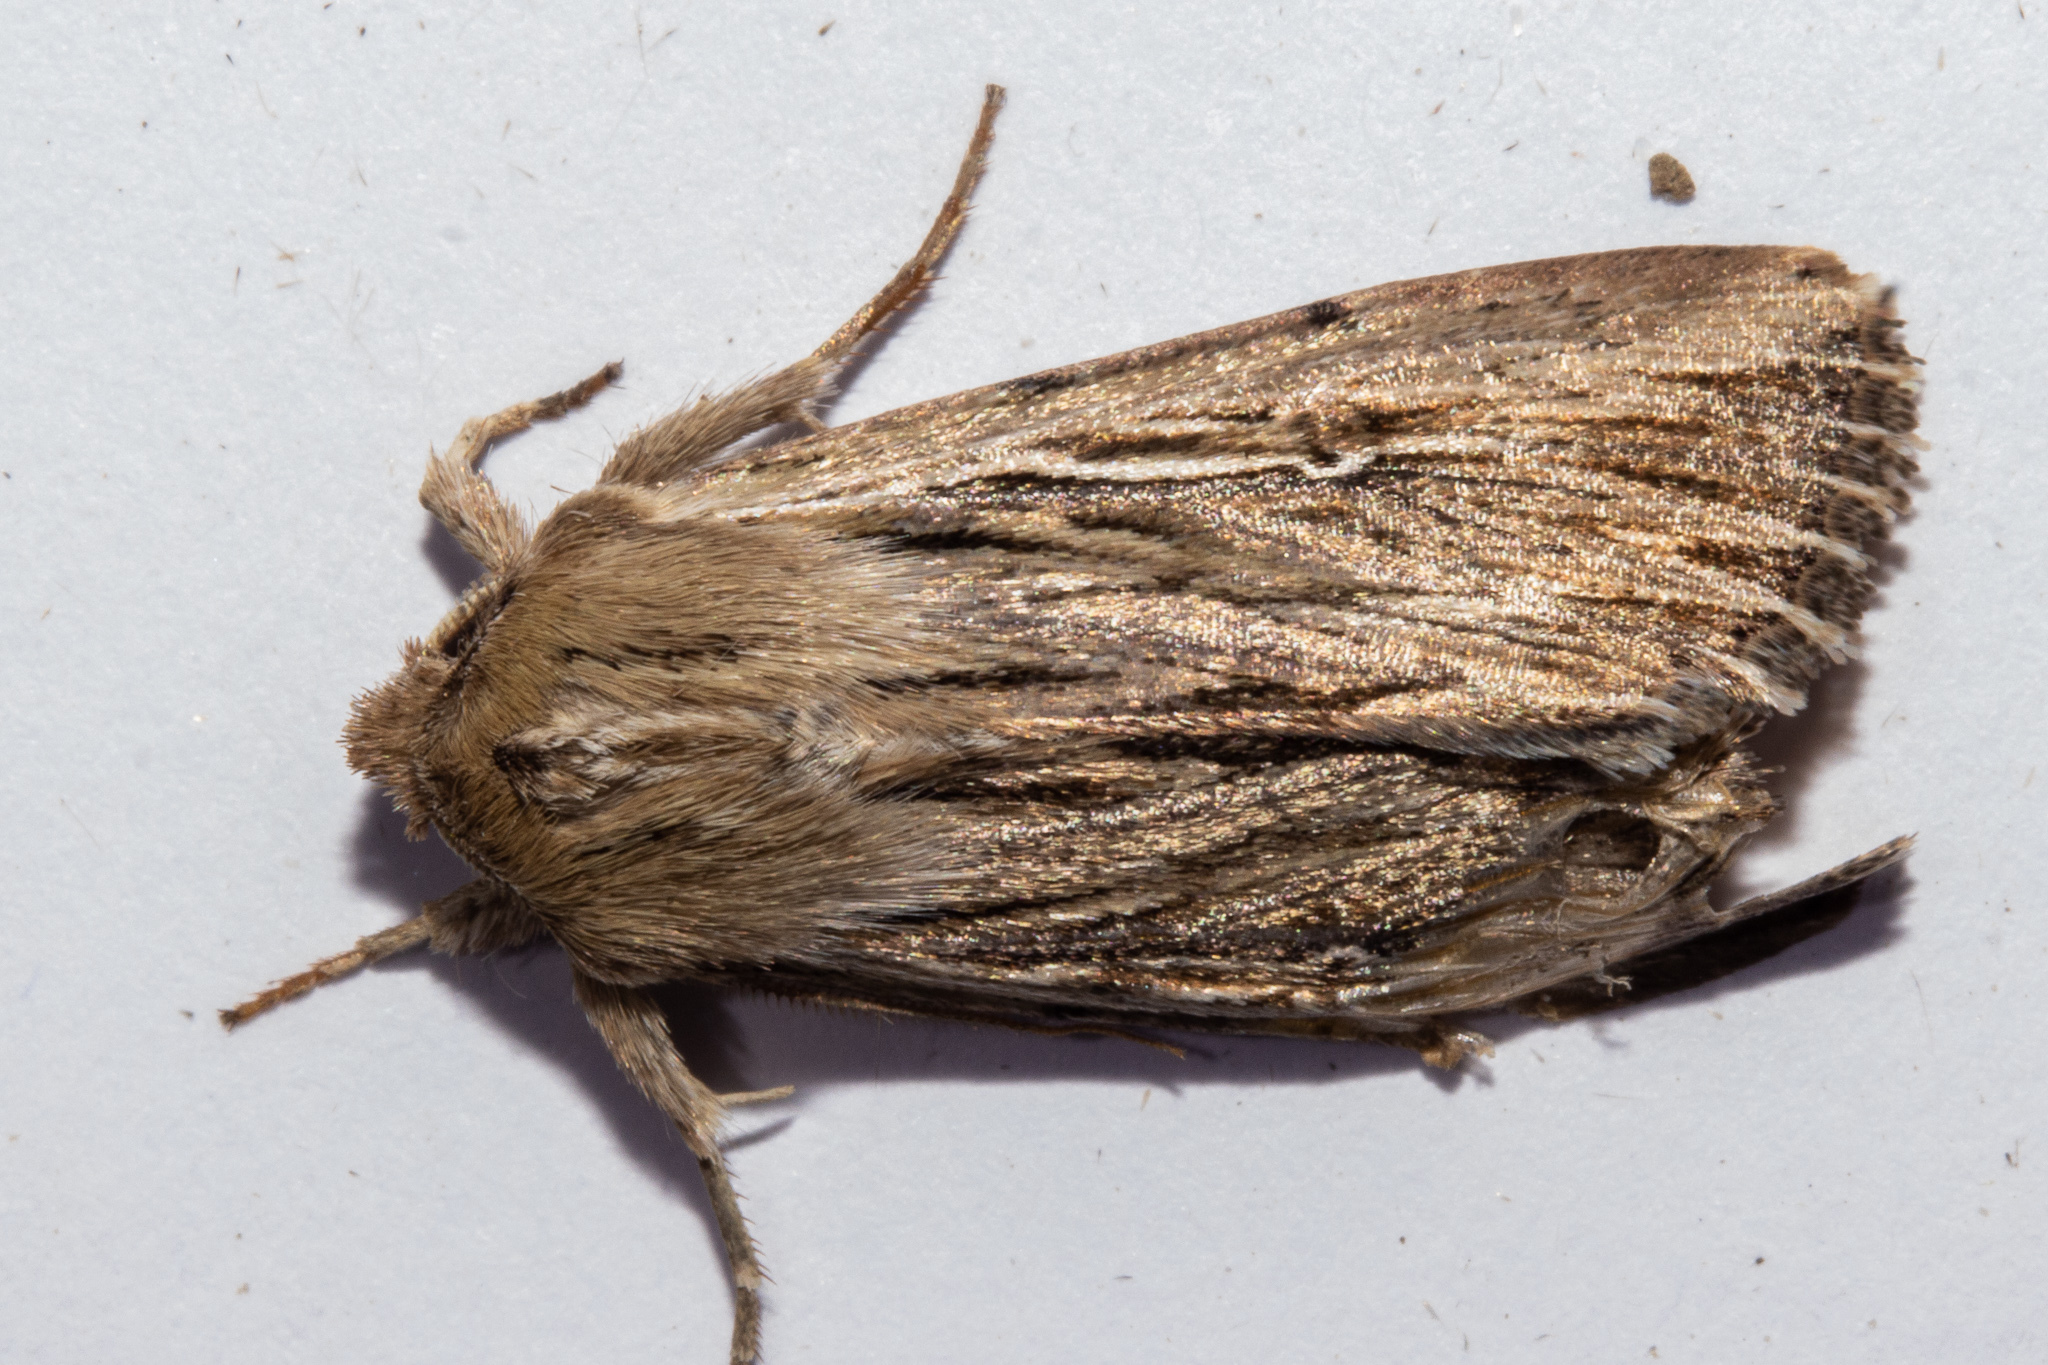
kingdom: Animalia
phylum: Arthropoda
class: Insecta
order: Lepidoptera
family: Noctuidae
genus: Persectania
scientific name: Persectania aversa
